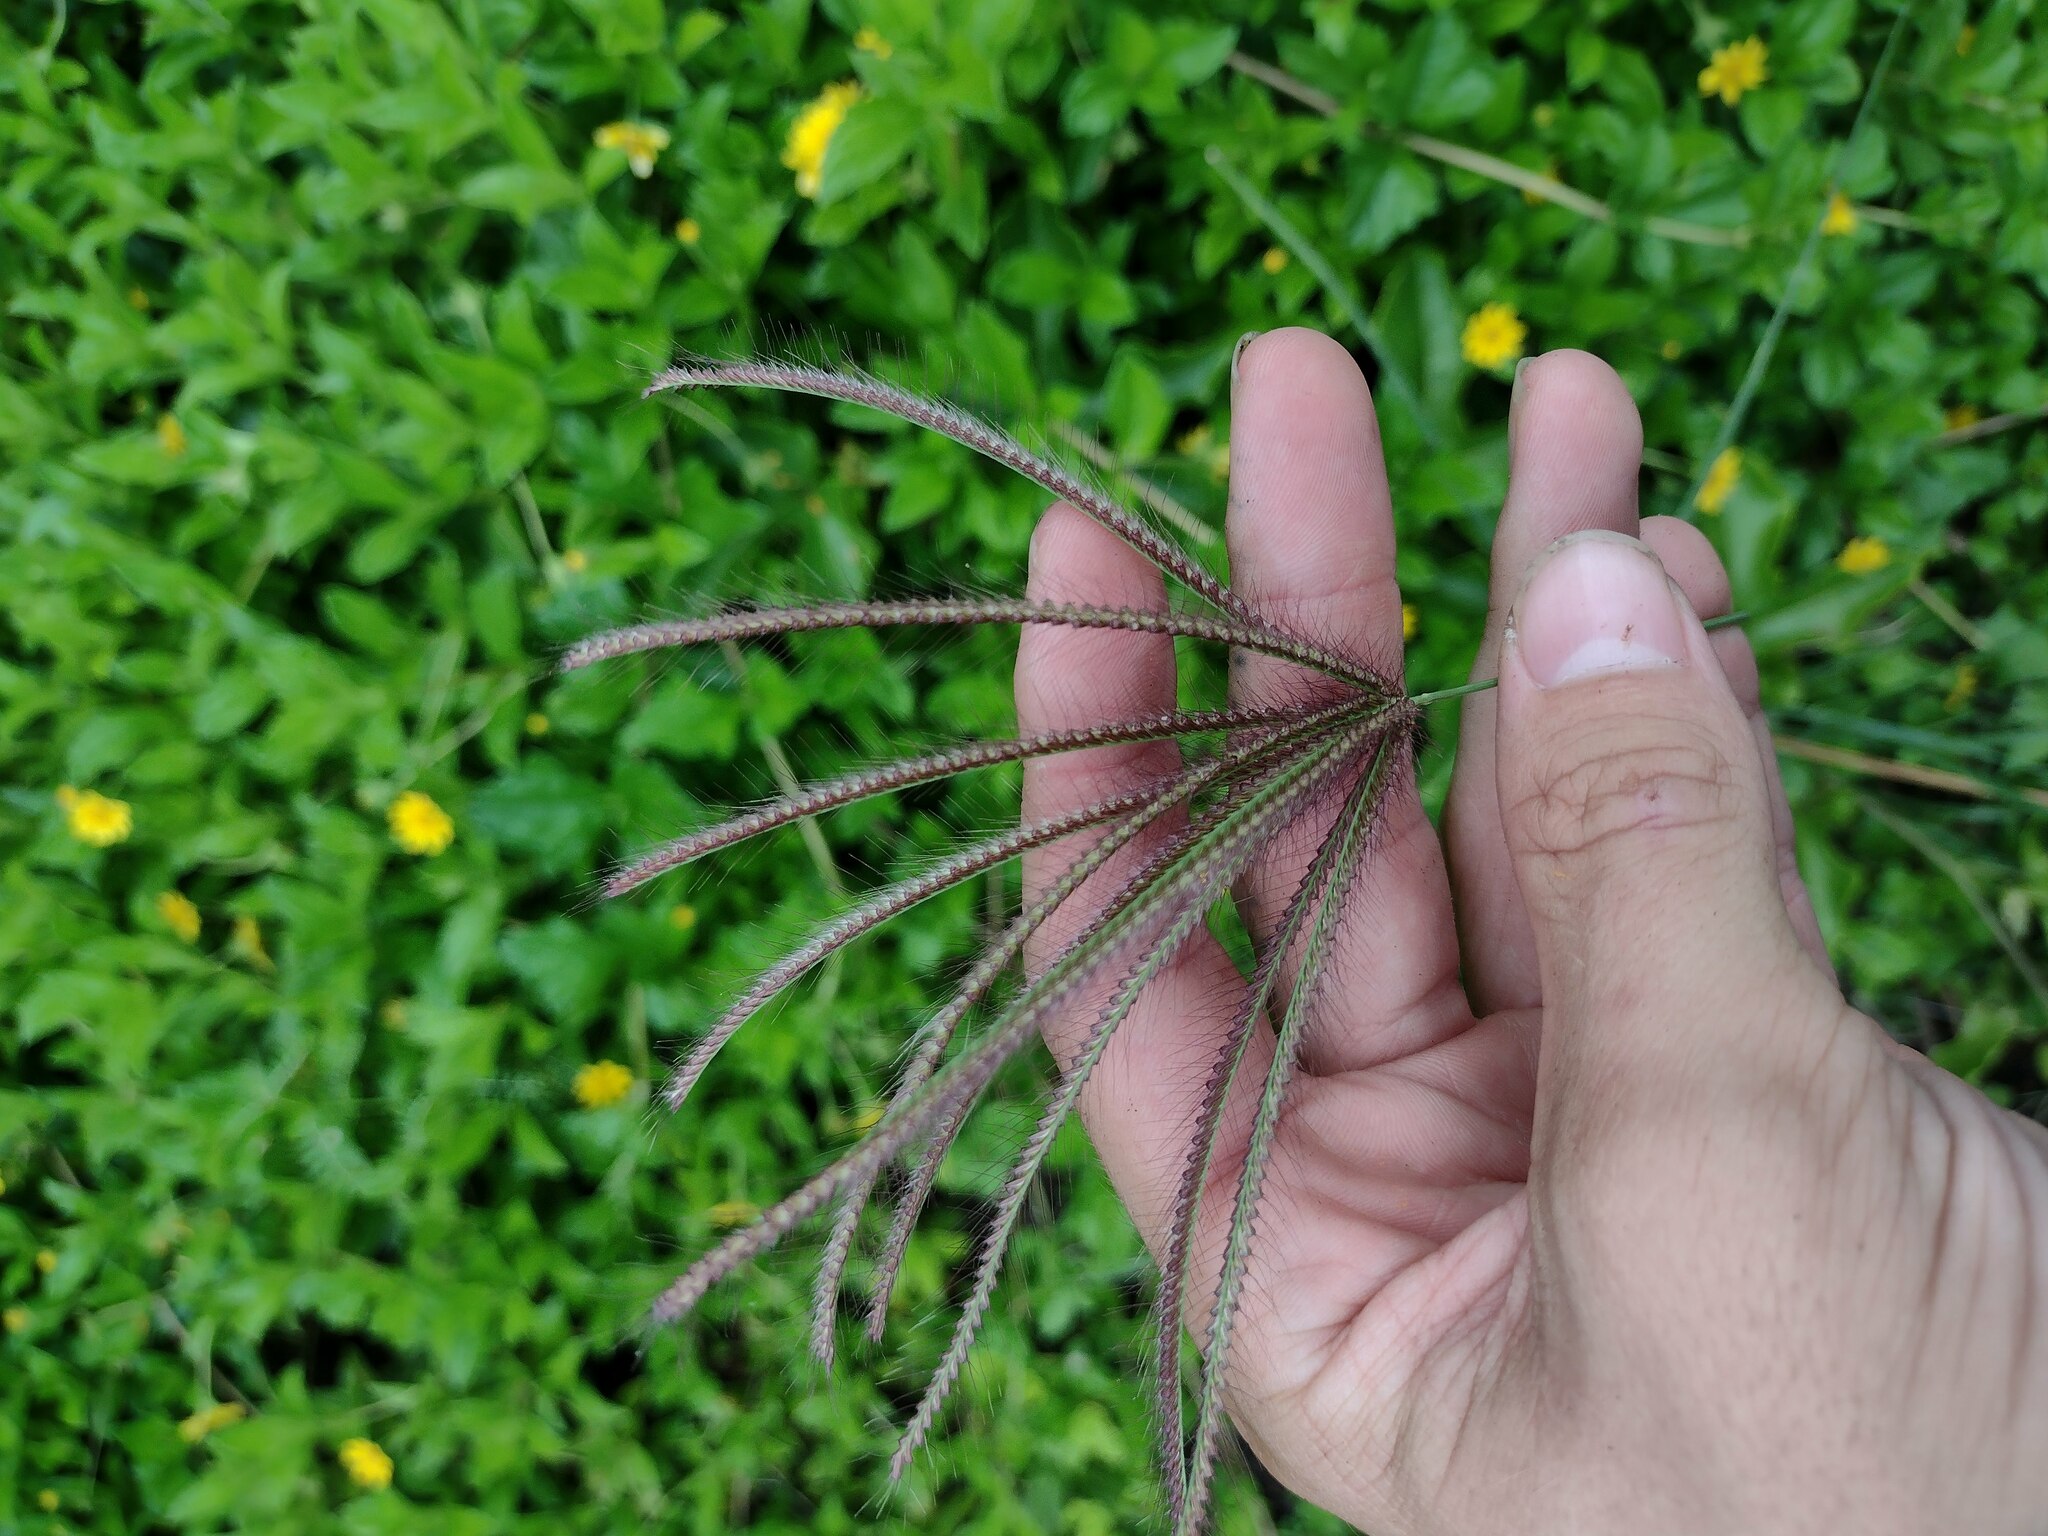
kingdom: Plantae
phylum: Tracheophyta
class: Liliopsida
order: Poales
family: Poaceae
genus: Chloris
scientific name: Chloris barbata
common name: Swollen fingergrass
